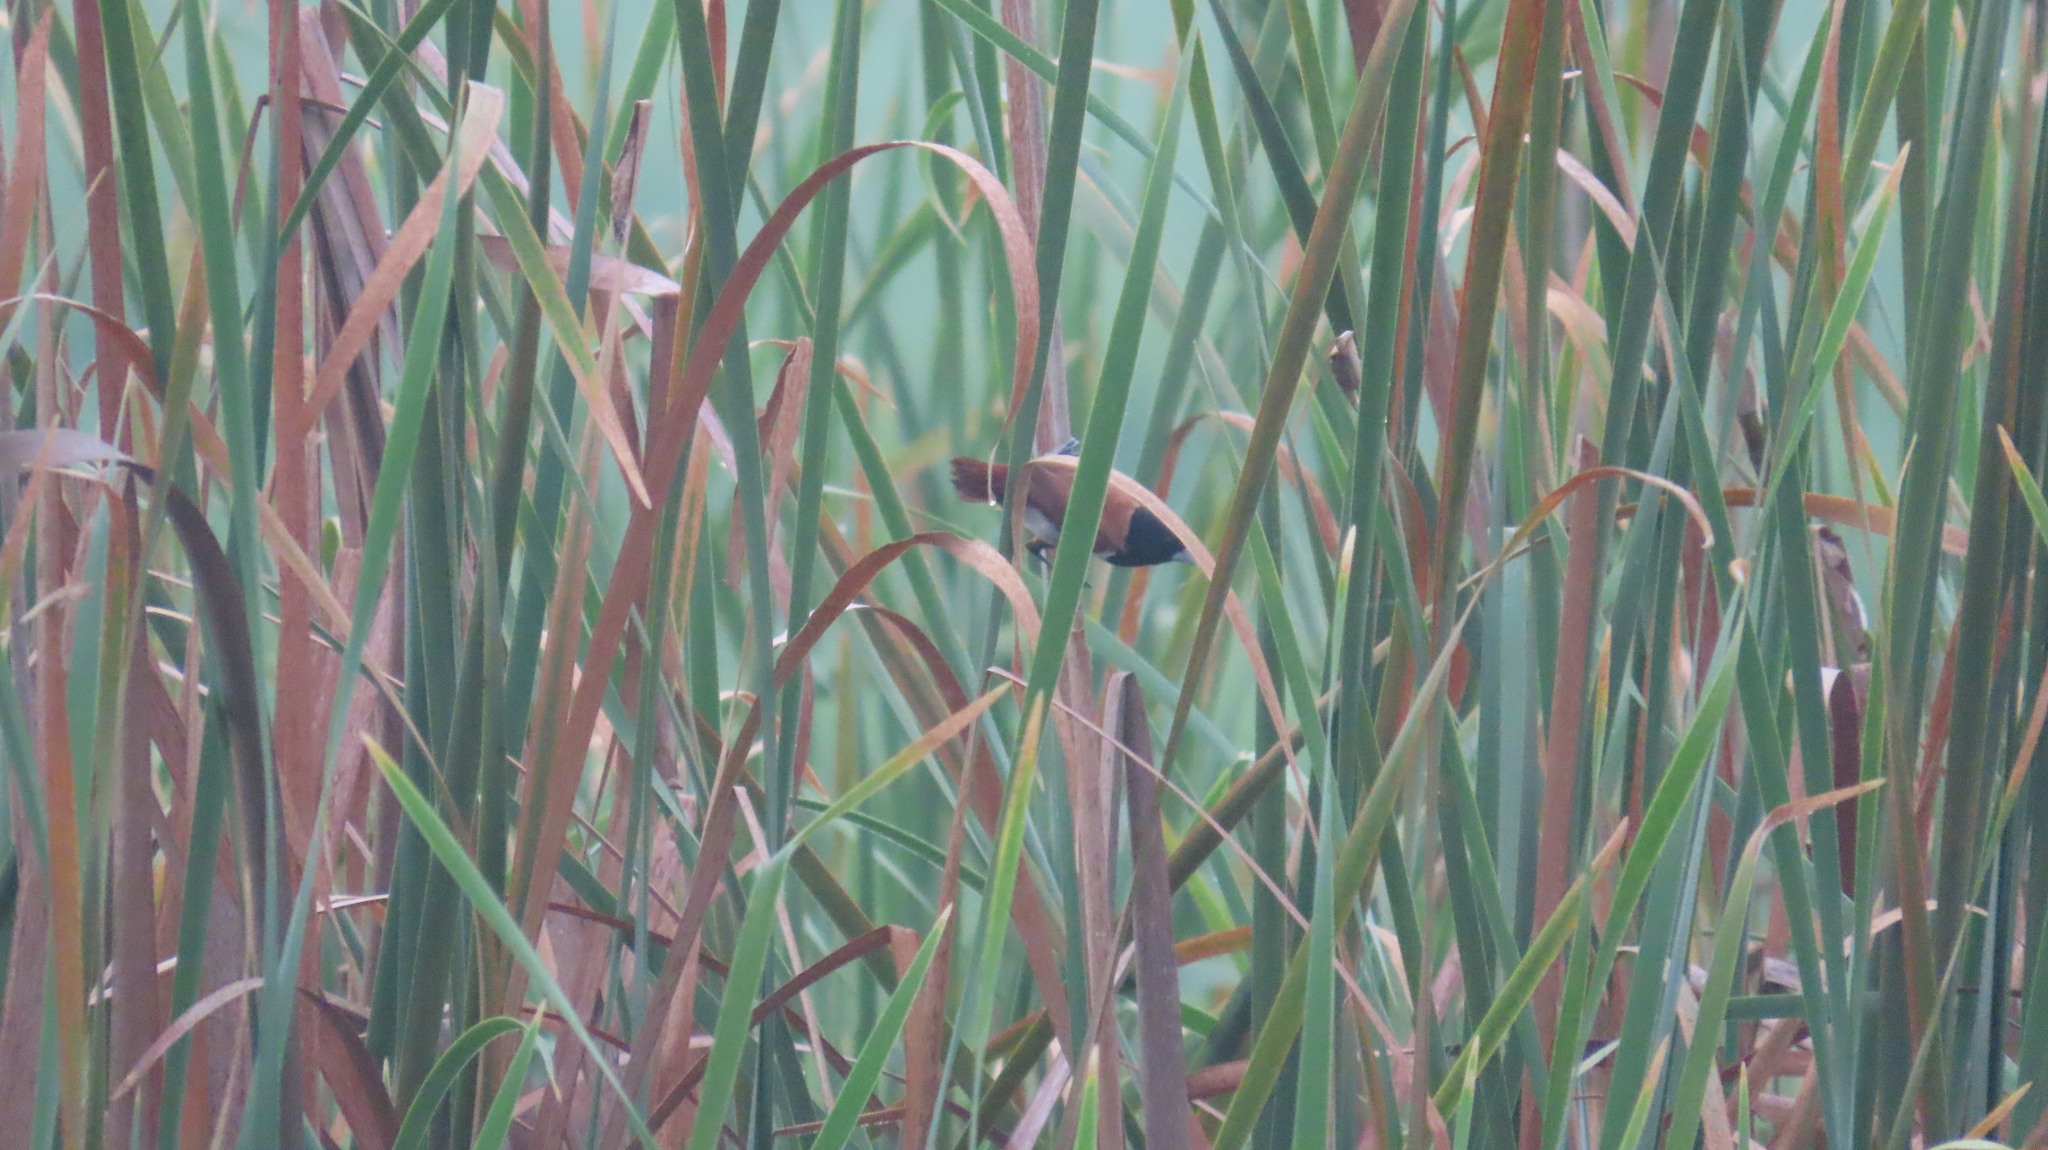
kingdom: Animalia
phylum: Chordata
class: Aves
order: Passeriformes
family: Estrildidae
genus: Lonchura
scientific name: Lonchura malacca
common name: Tricolored munia
